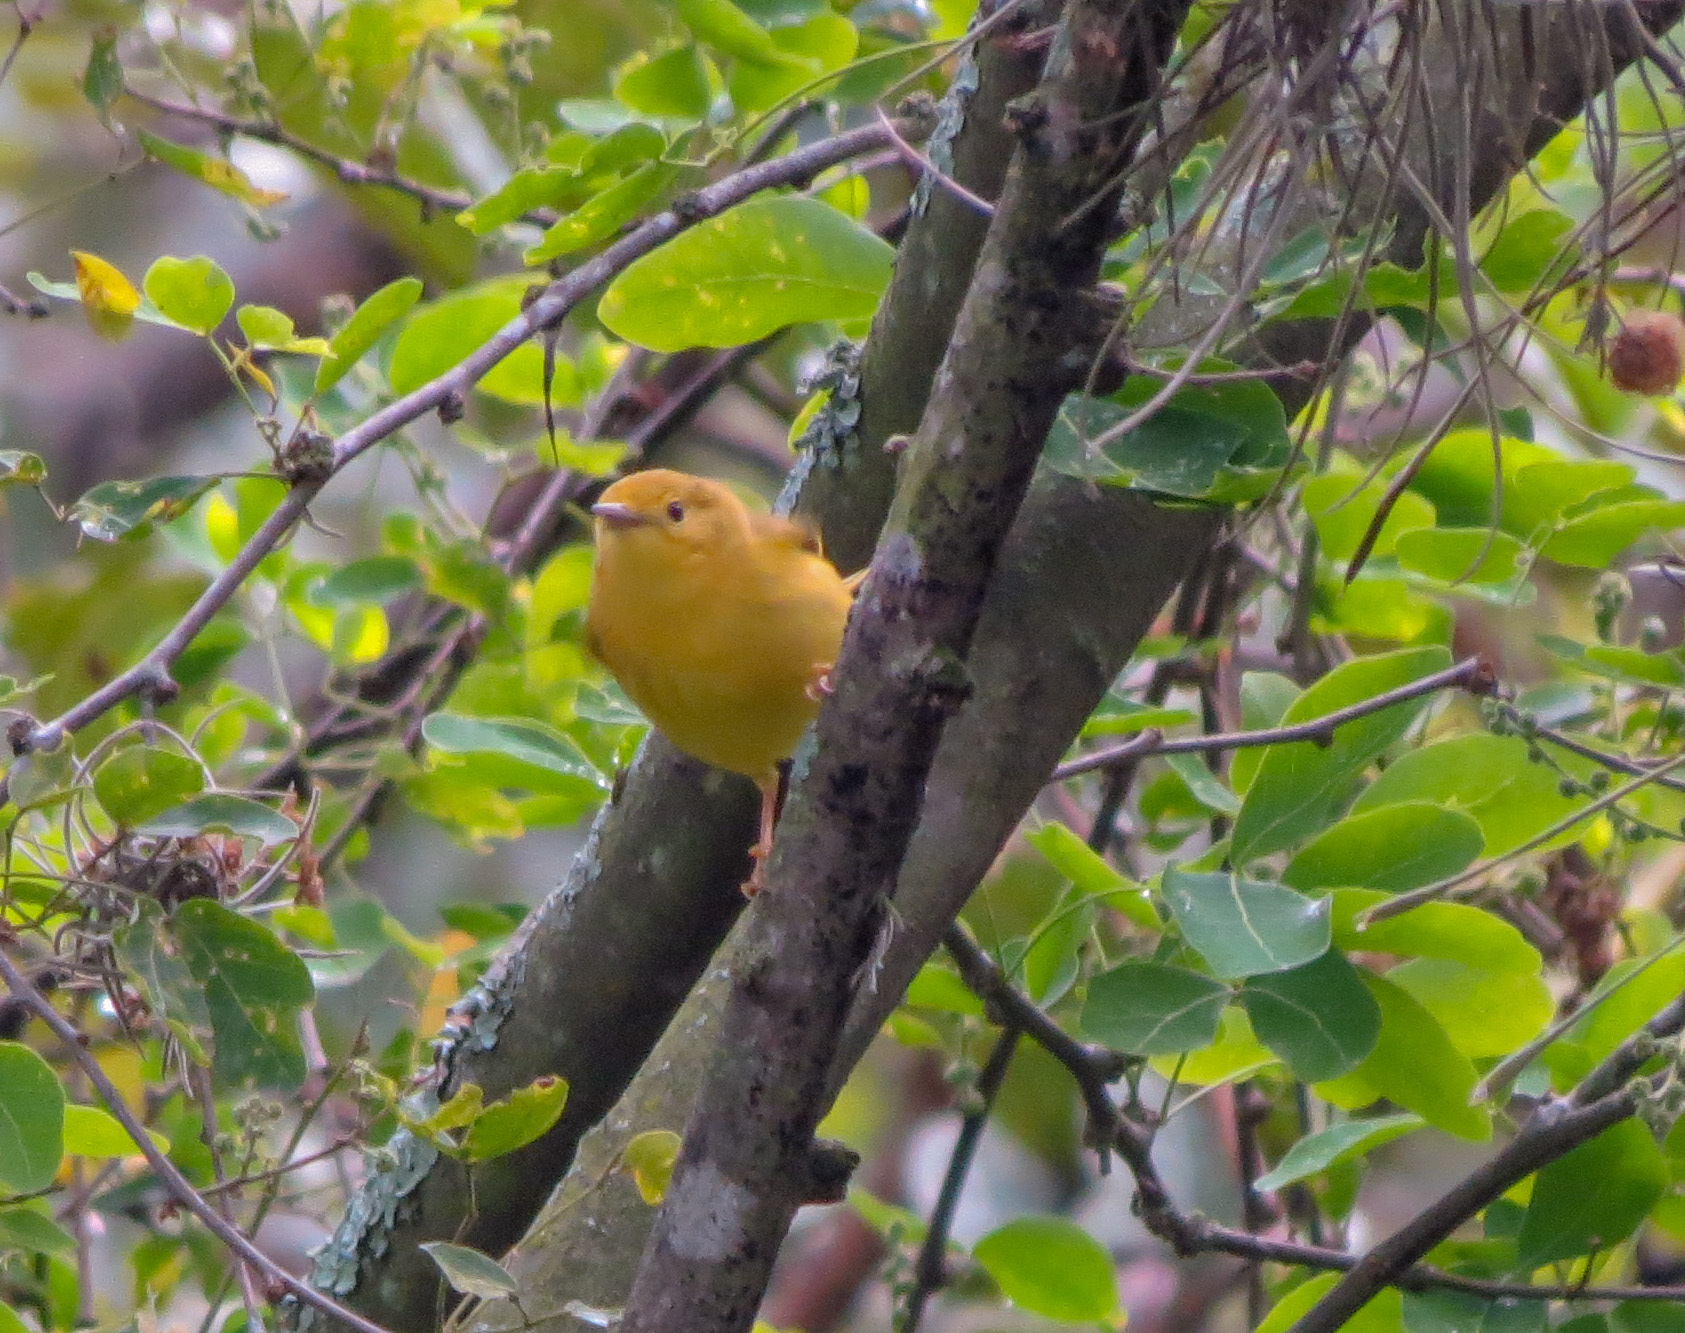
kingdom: Animalia
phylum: Chordata
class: Aves
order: Passeriformes
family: Parulidae
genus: Setophaga
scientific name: Setophaga petechia
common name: Yellow warbler
